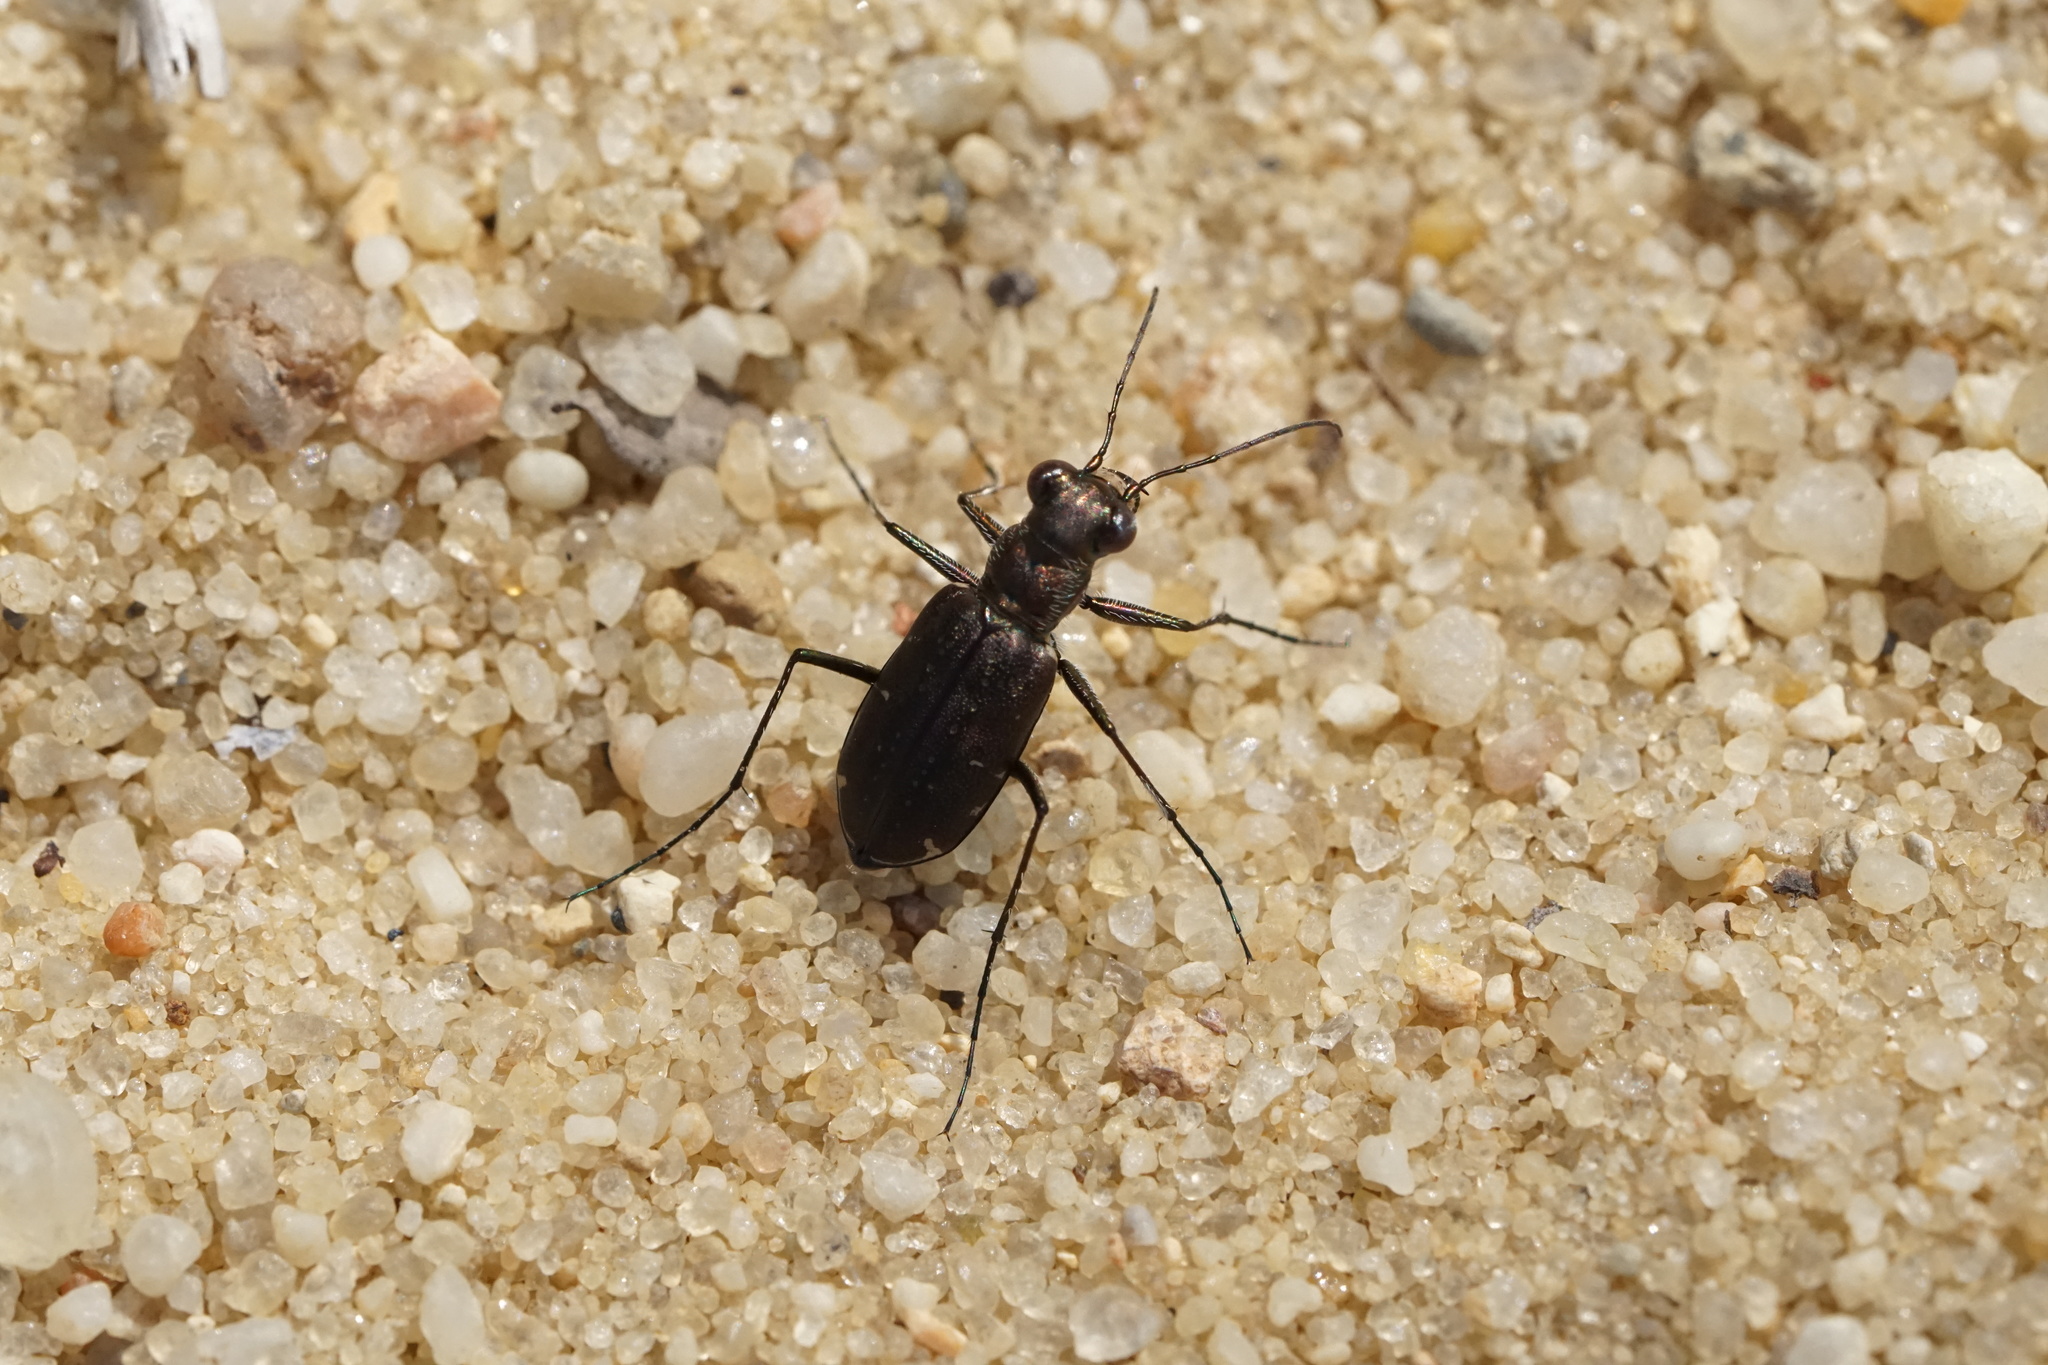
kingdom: Animalia
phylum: Arthropoda
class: Insecta
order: Coleoptera
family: Carabidae
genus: Cicindela
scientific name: Cicindela punctulata
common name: Punctured tiger beetle
